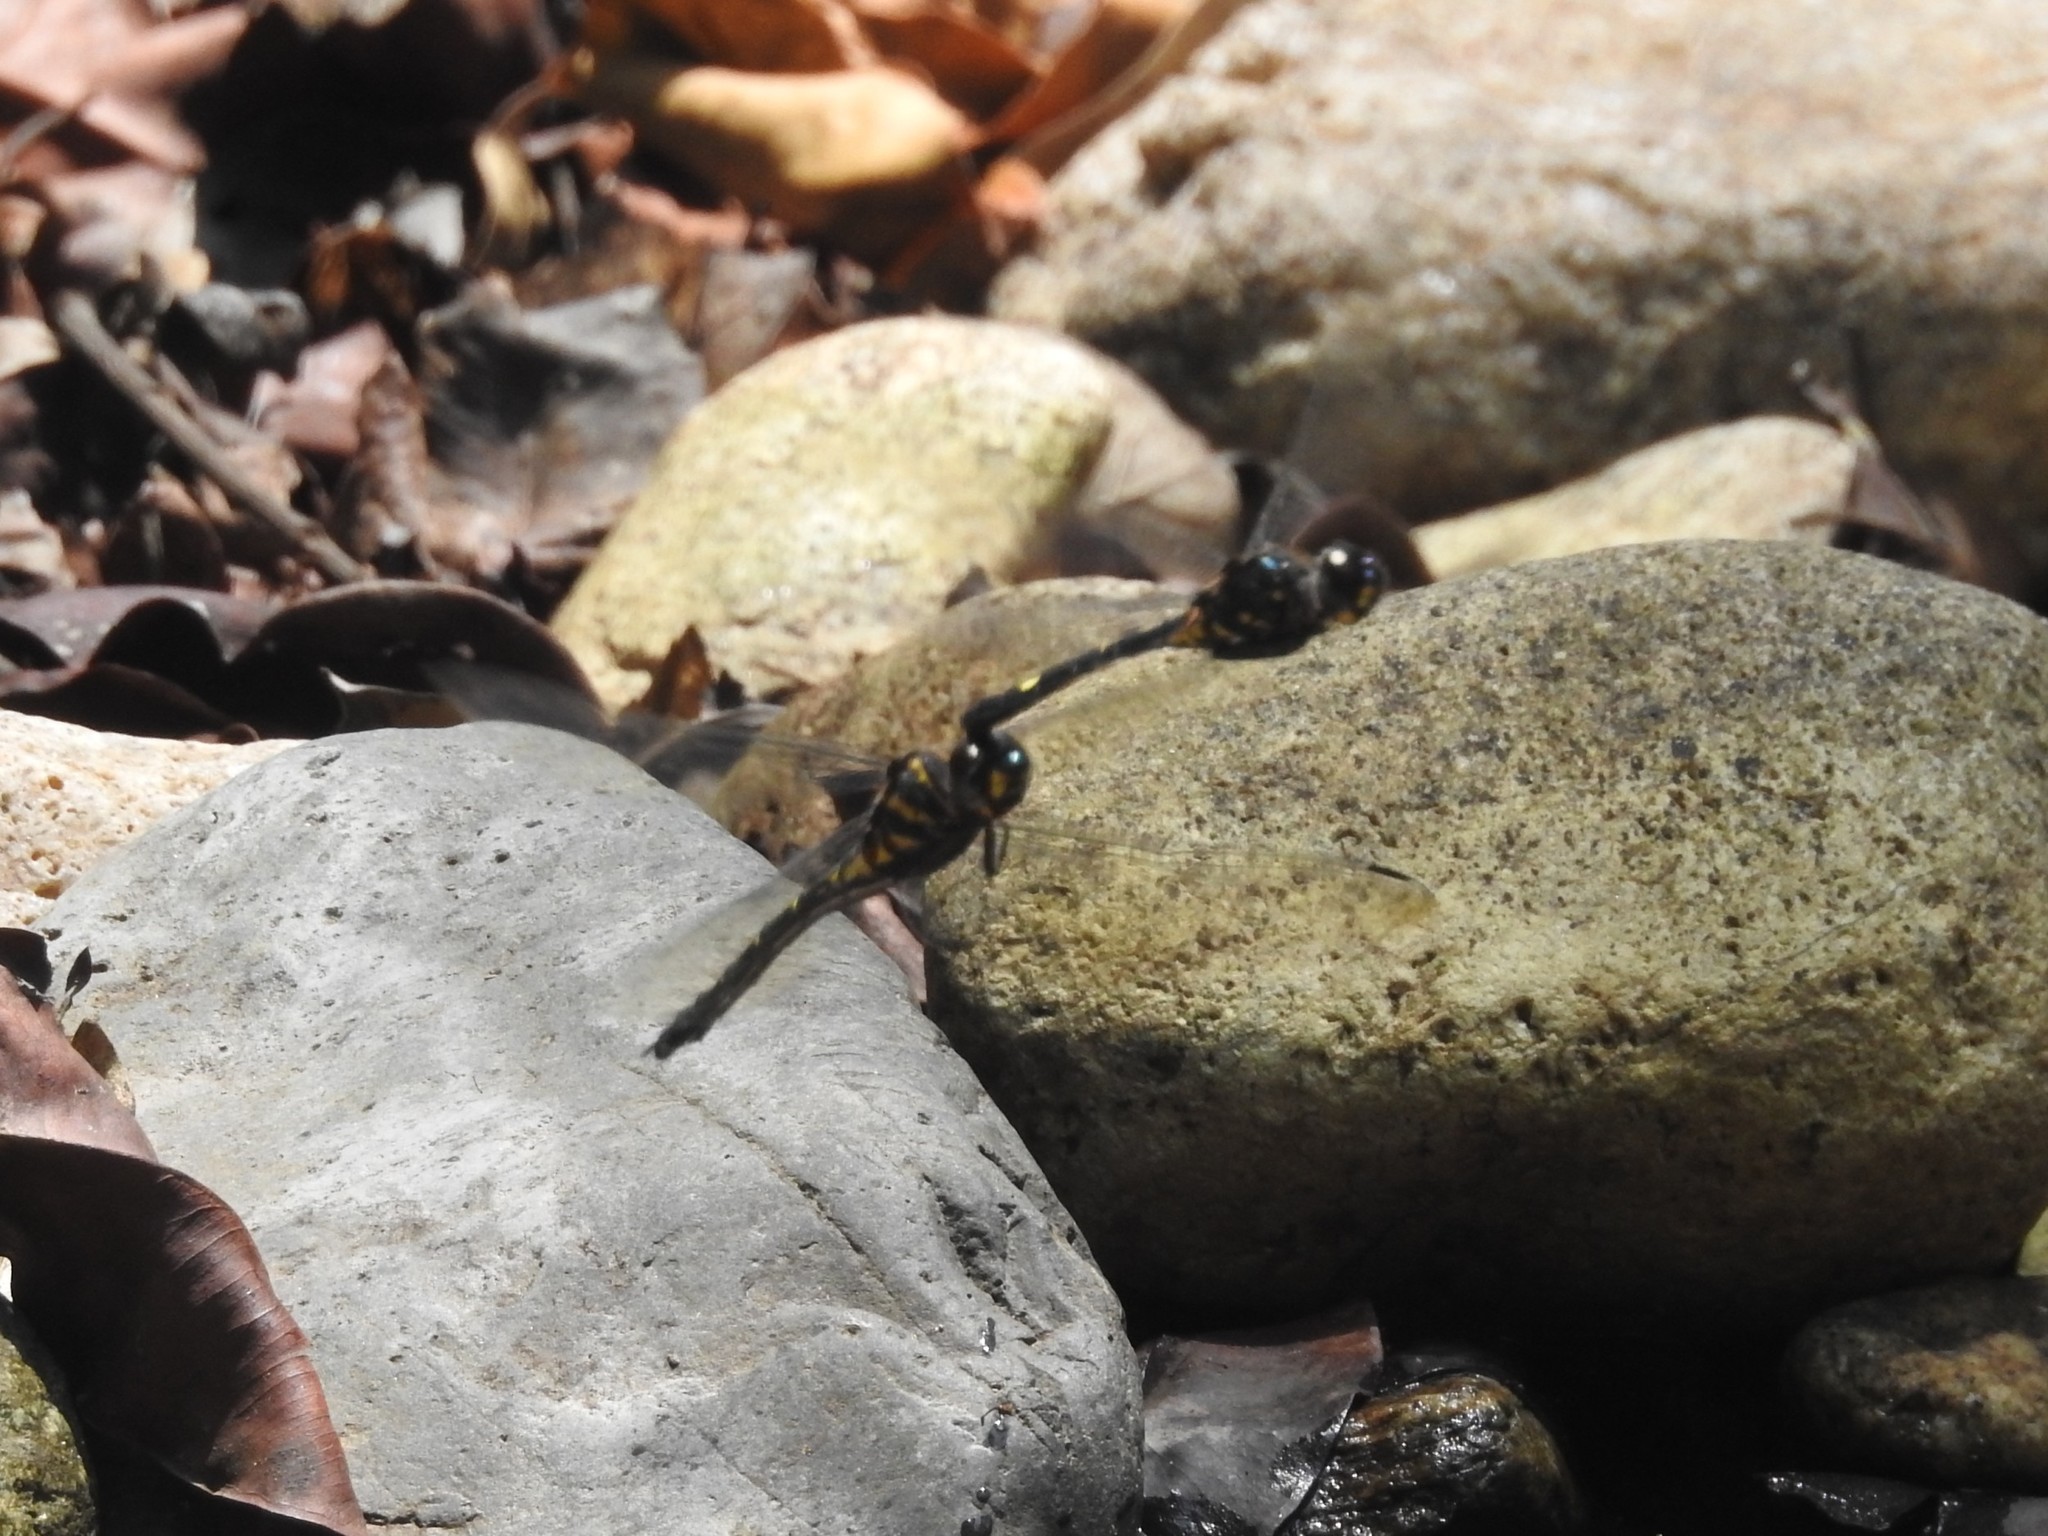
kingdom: Animalia
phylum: Arthropoda
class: Insecta
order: Odonata
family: Libellulidae
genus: Zygonyx
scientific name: Zygonyx iris
